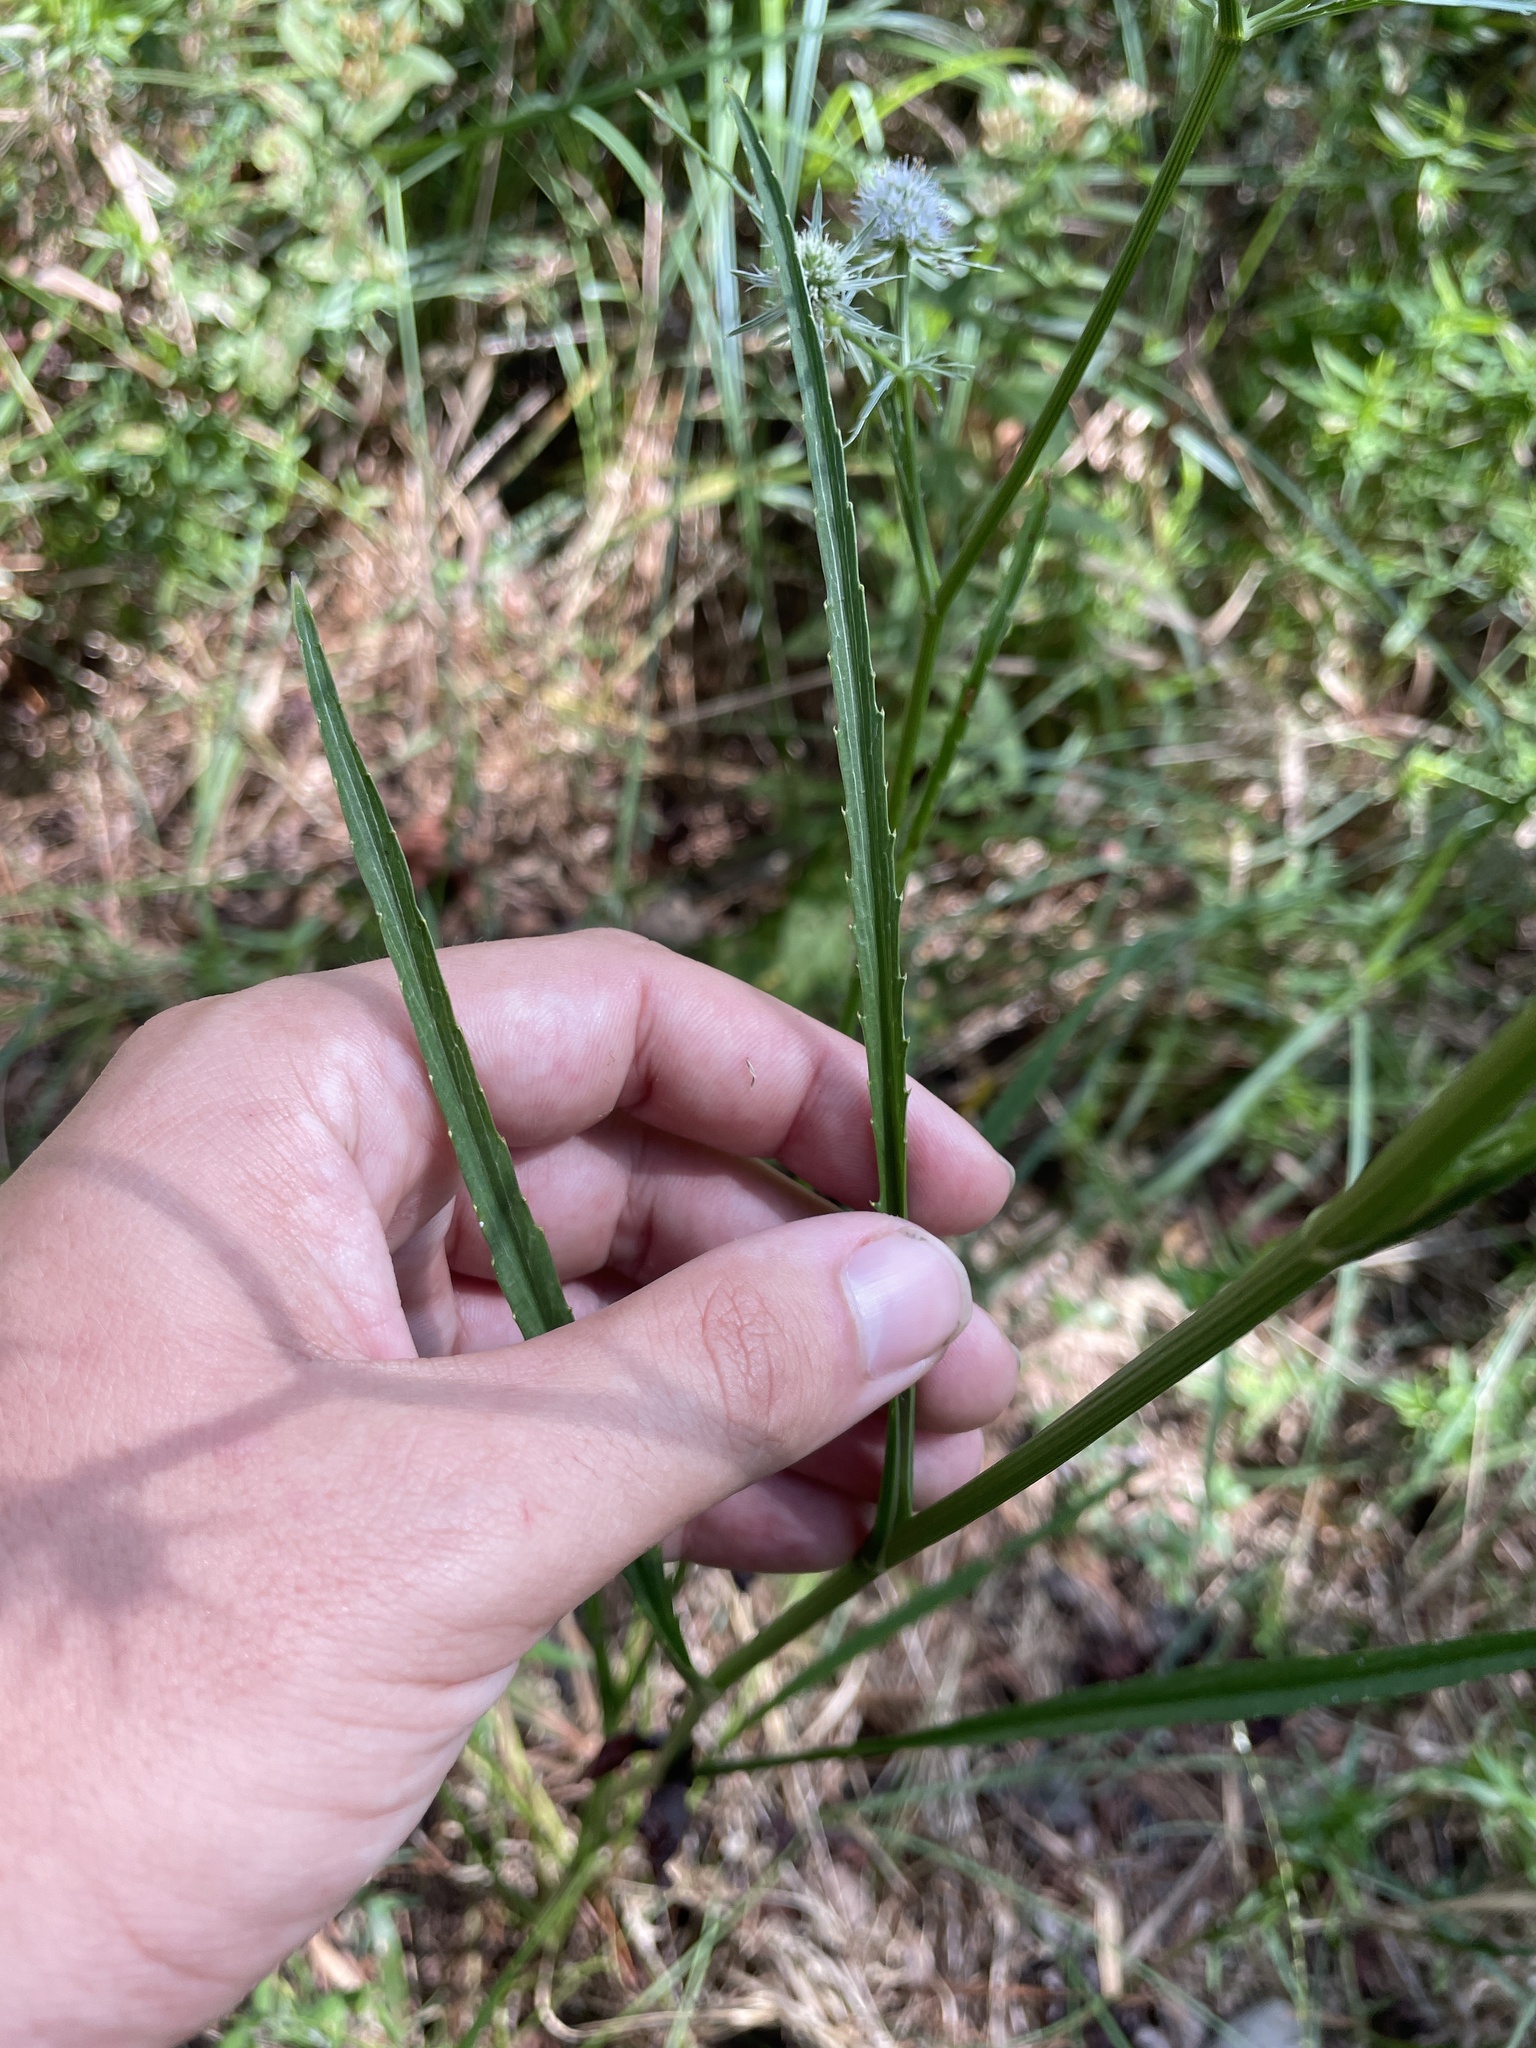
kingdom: Plantae
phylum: Tracheophyta
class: Magnoliopsida
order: Apiales
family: Apiaceae
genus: Eryngium
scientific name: Eryngium aquaticum
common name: Water eryngo
